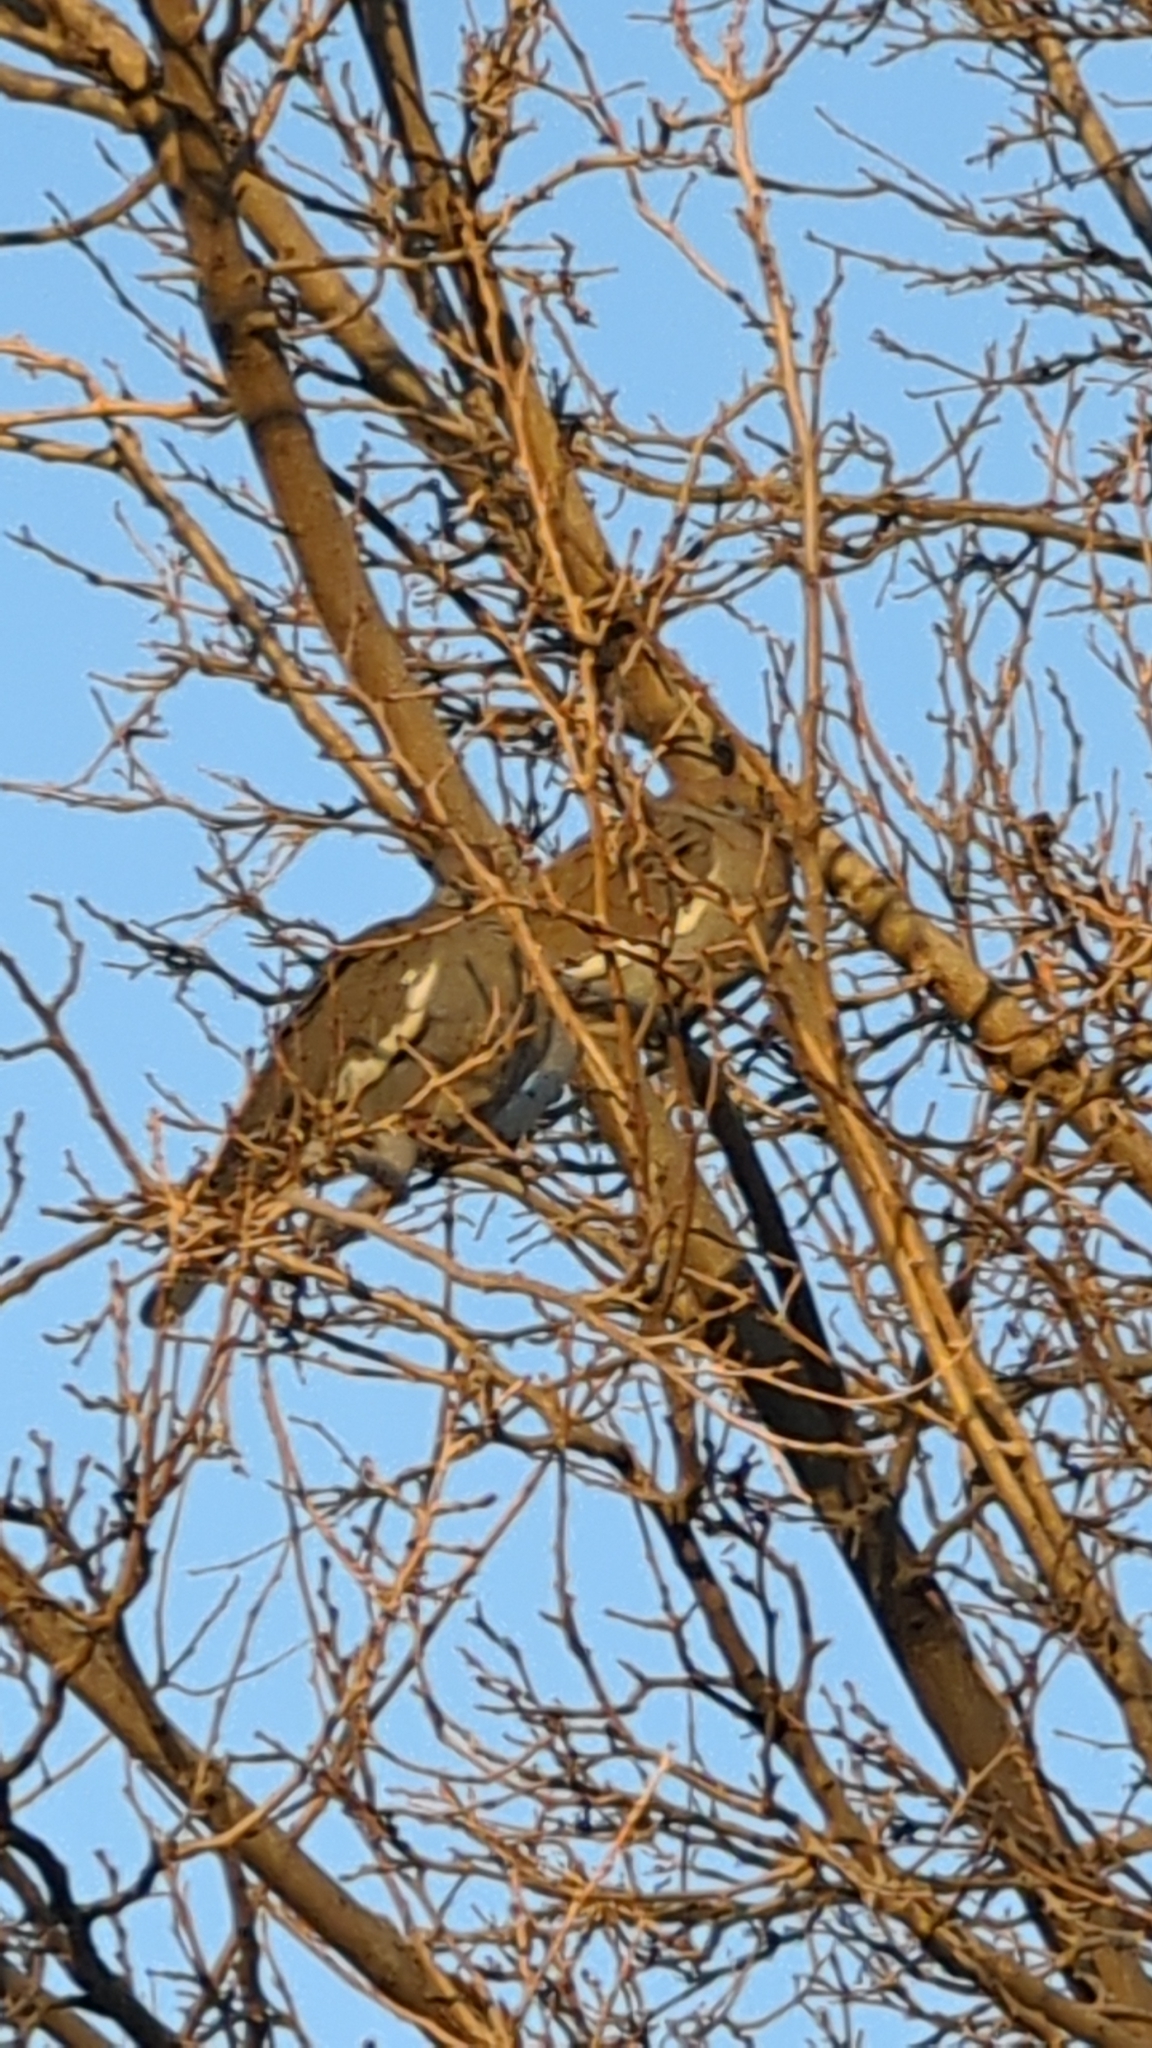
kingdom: Animalia
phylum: Chordata
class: Aves
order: Columbiformes
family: Columbidae
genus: Zenaida
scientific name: Zenaida asiatica
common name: White-winged dove
